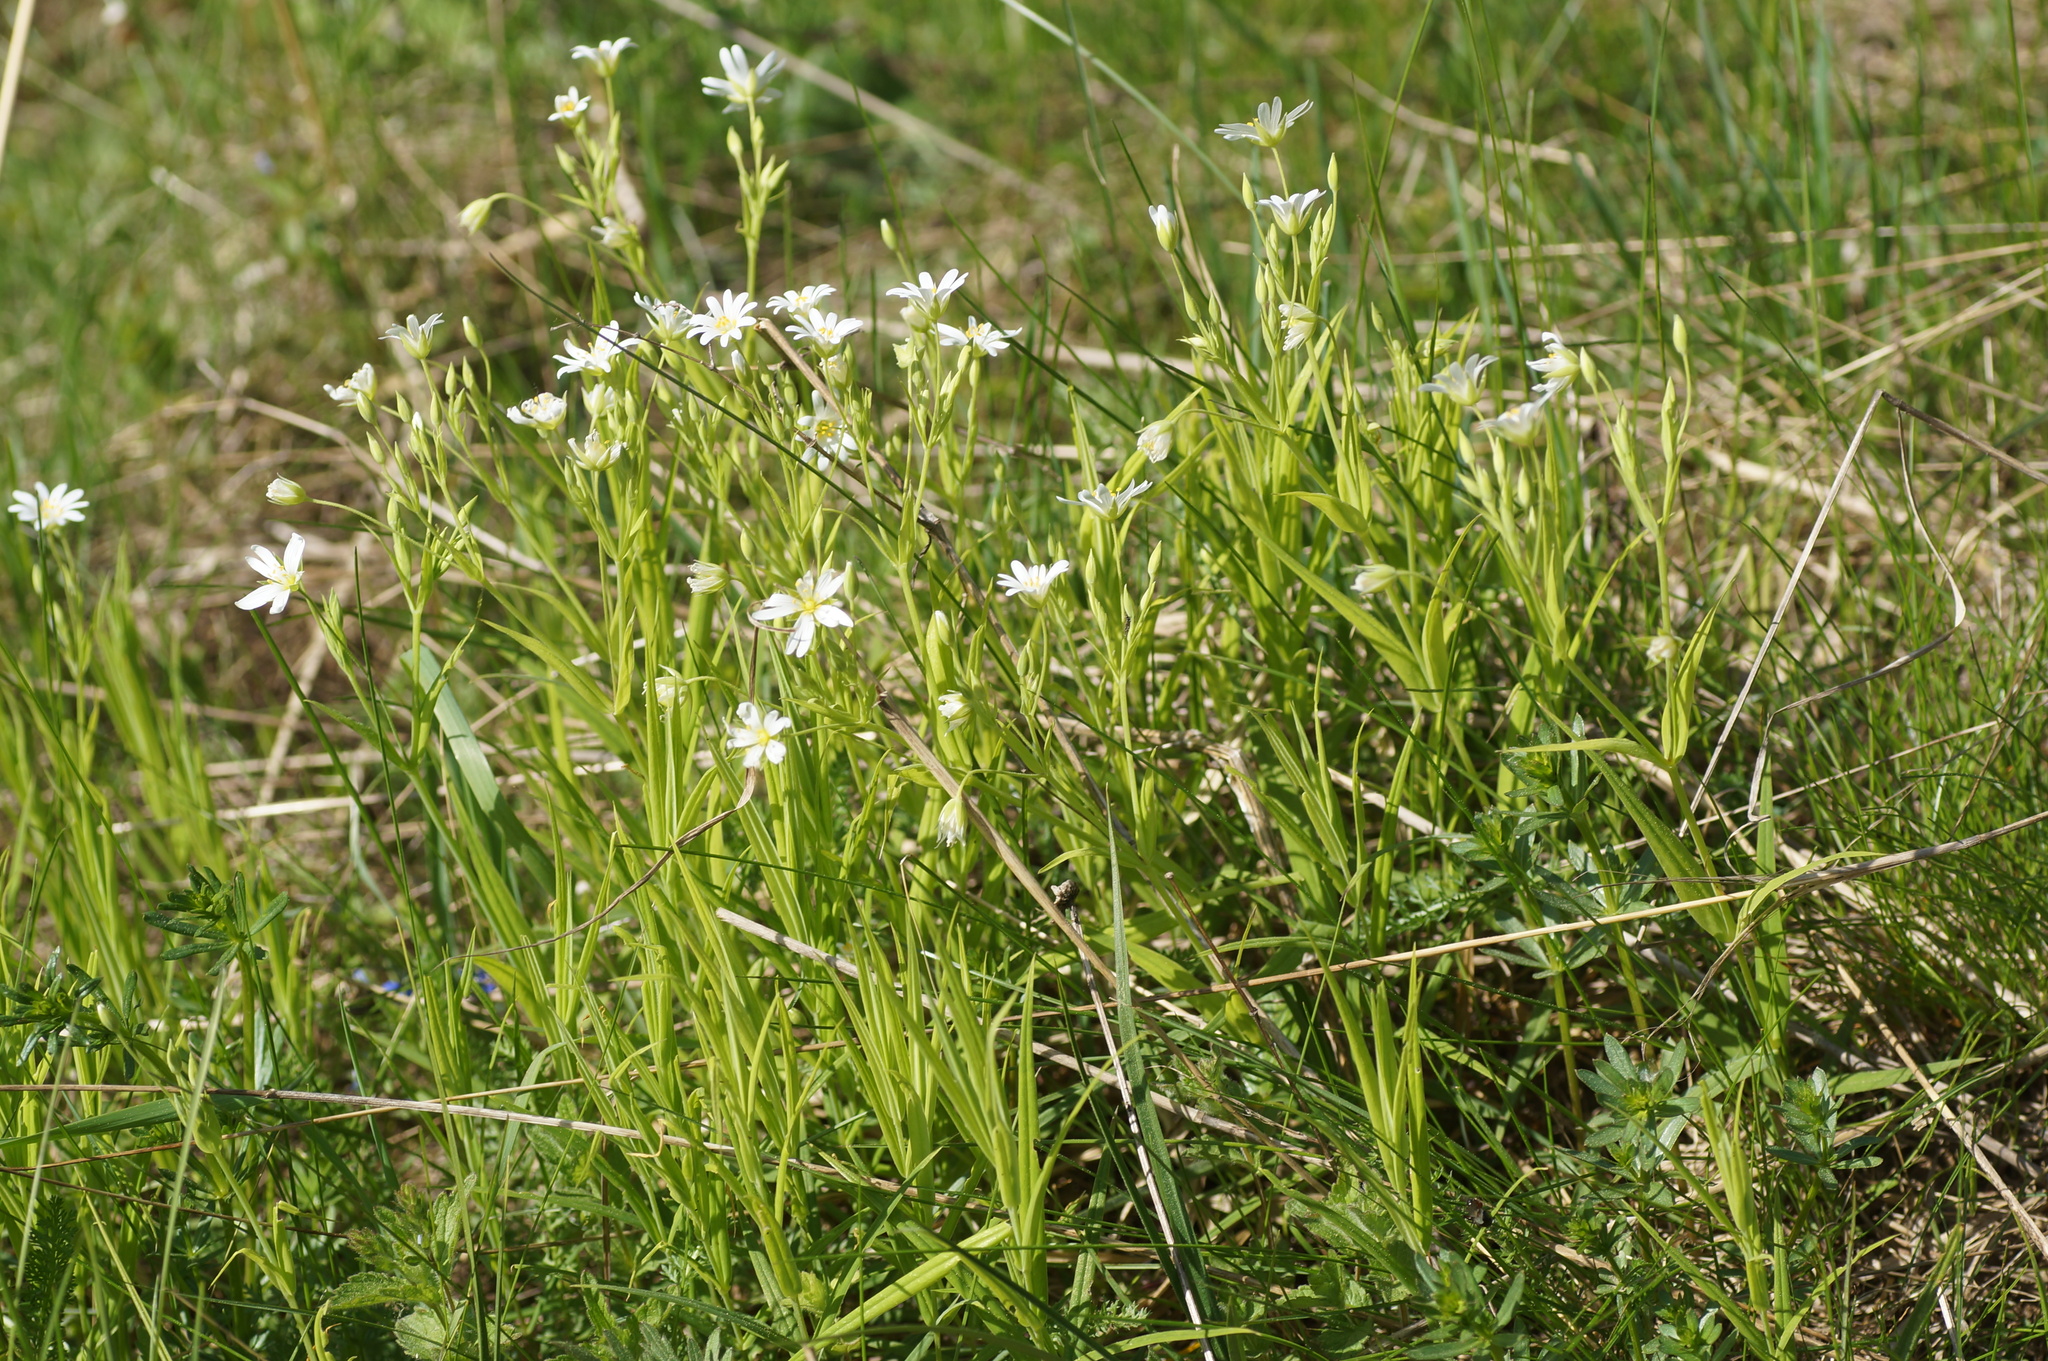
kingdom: Plantae
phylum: Tracheophyta
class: Magnoliopsida
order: Caryophyllales
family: Caryophyllaceae
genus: Rabelera
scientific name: Rabelera holostea
